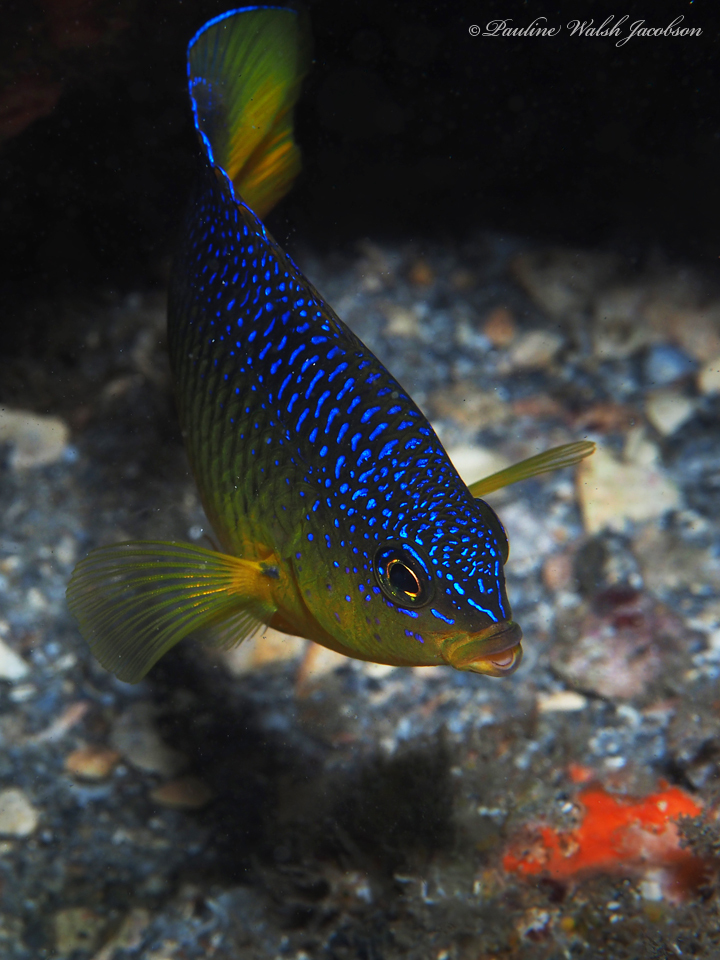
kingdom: Animalia
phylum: Chordata
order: Perciformes
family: Pomacentridae
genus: Stegastes
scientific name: Stegastes xanthurus
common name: Cocoa damselfish
